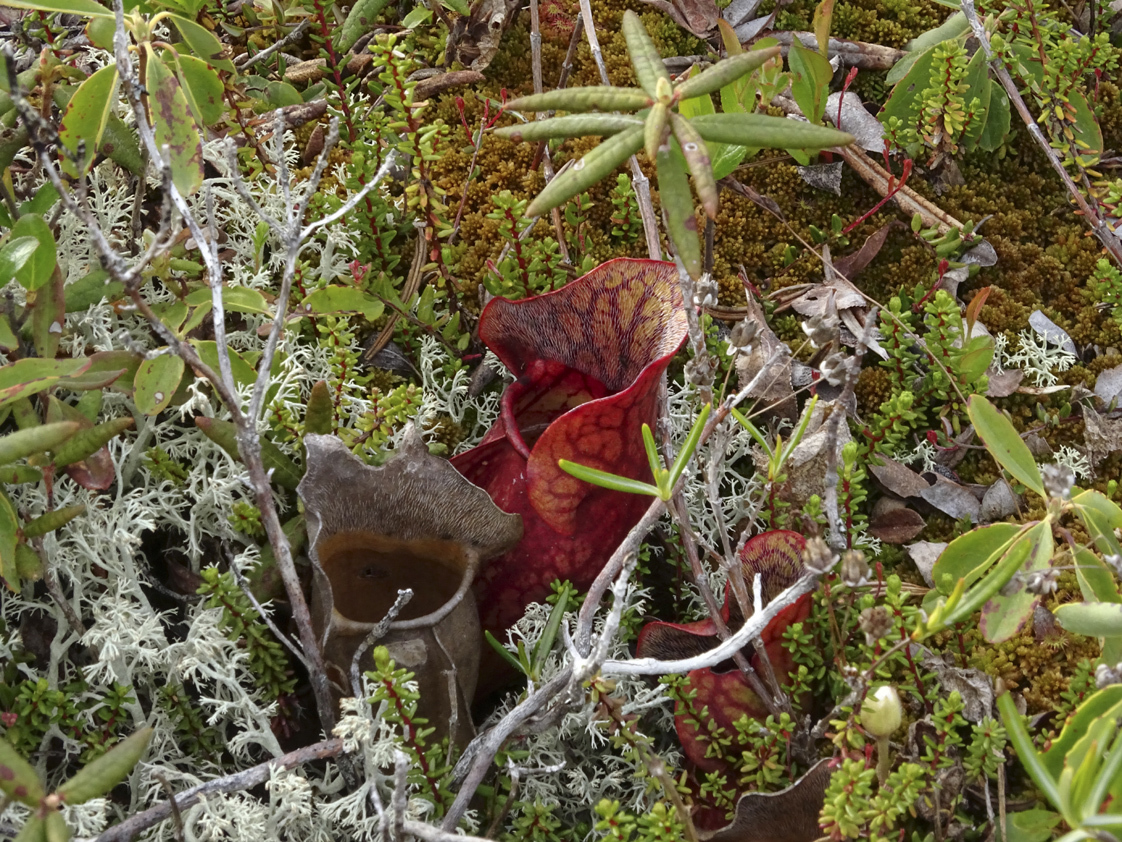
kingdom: Plantae
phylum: Tracheophyta
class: Magnoliopsida
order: Ericales
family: Sarraceniaceae
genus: Sarracenia
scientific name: Sarracenia purpurea
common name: Pitcherplant
